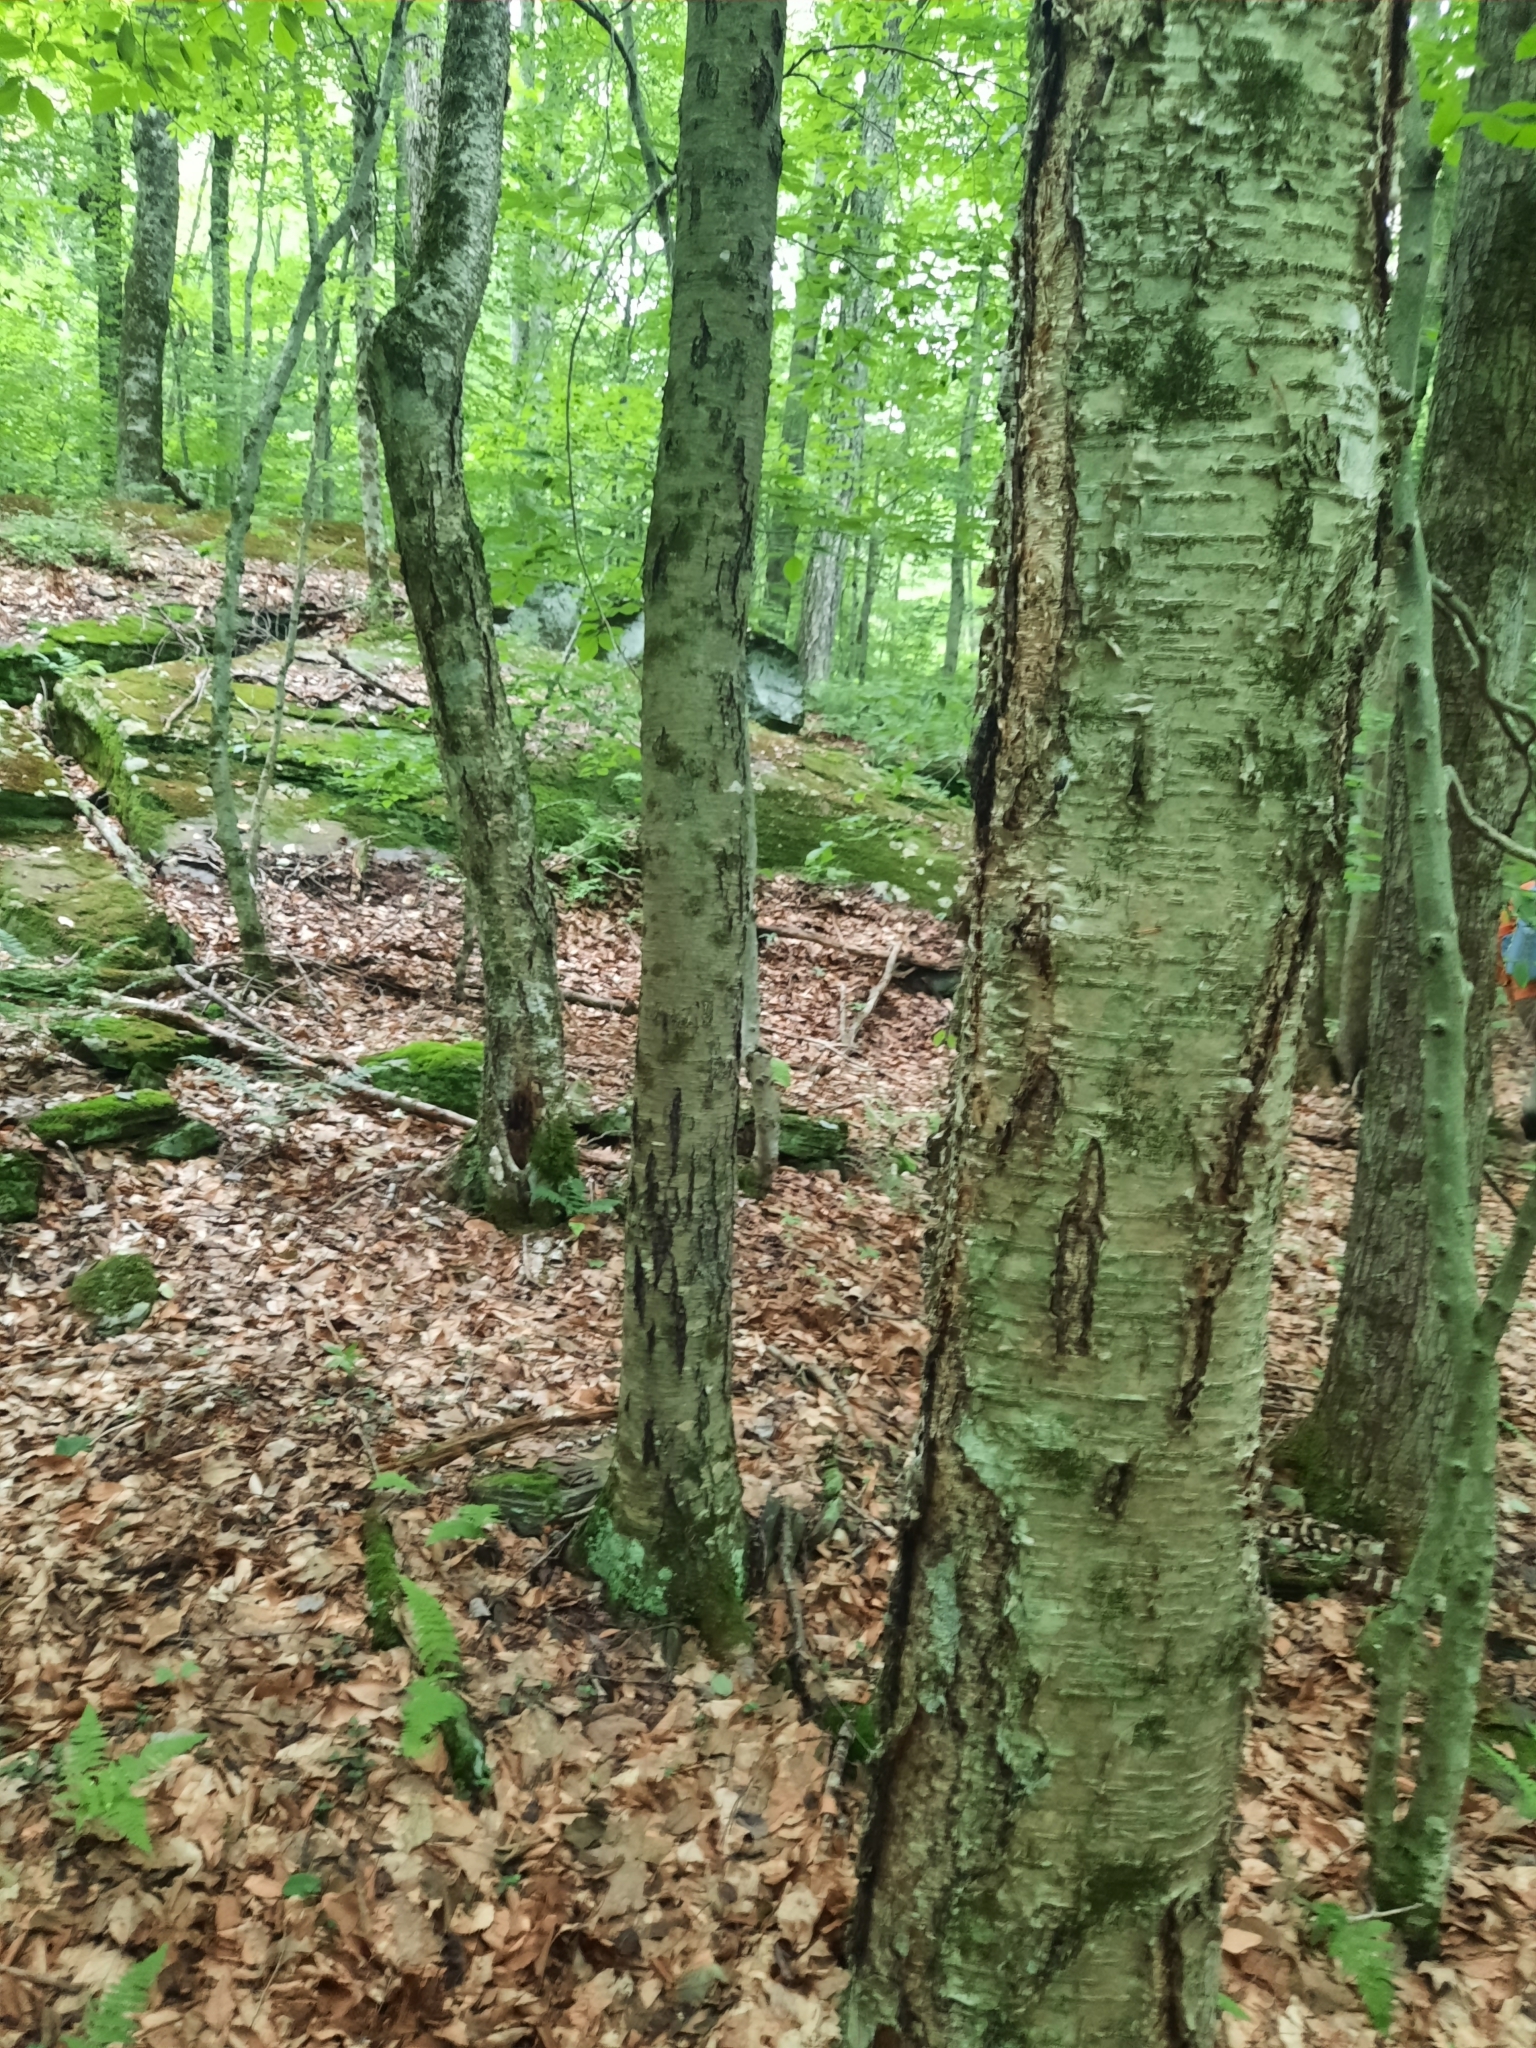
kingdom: Plantae
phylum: Tracheophyta
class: Magnoliopsida
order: Fagales
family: Betulaceae
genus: Betula
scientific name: Betula alleghaniensis
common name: Yellow birch
